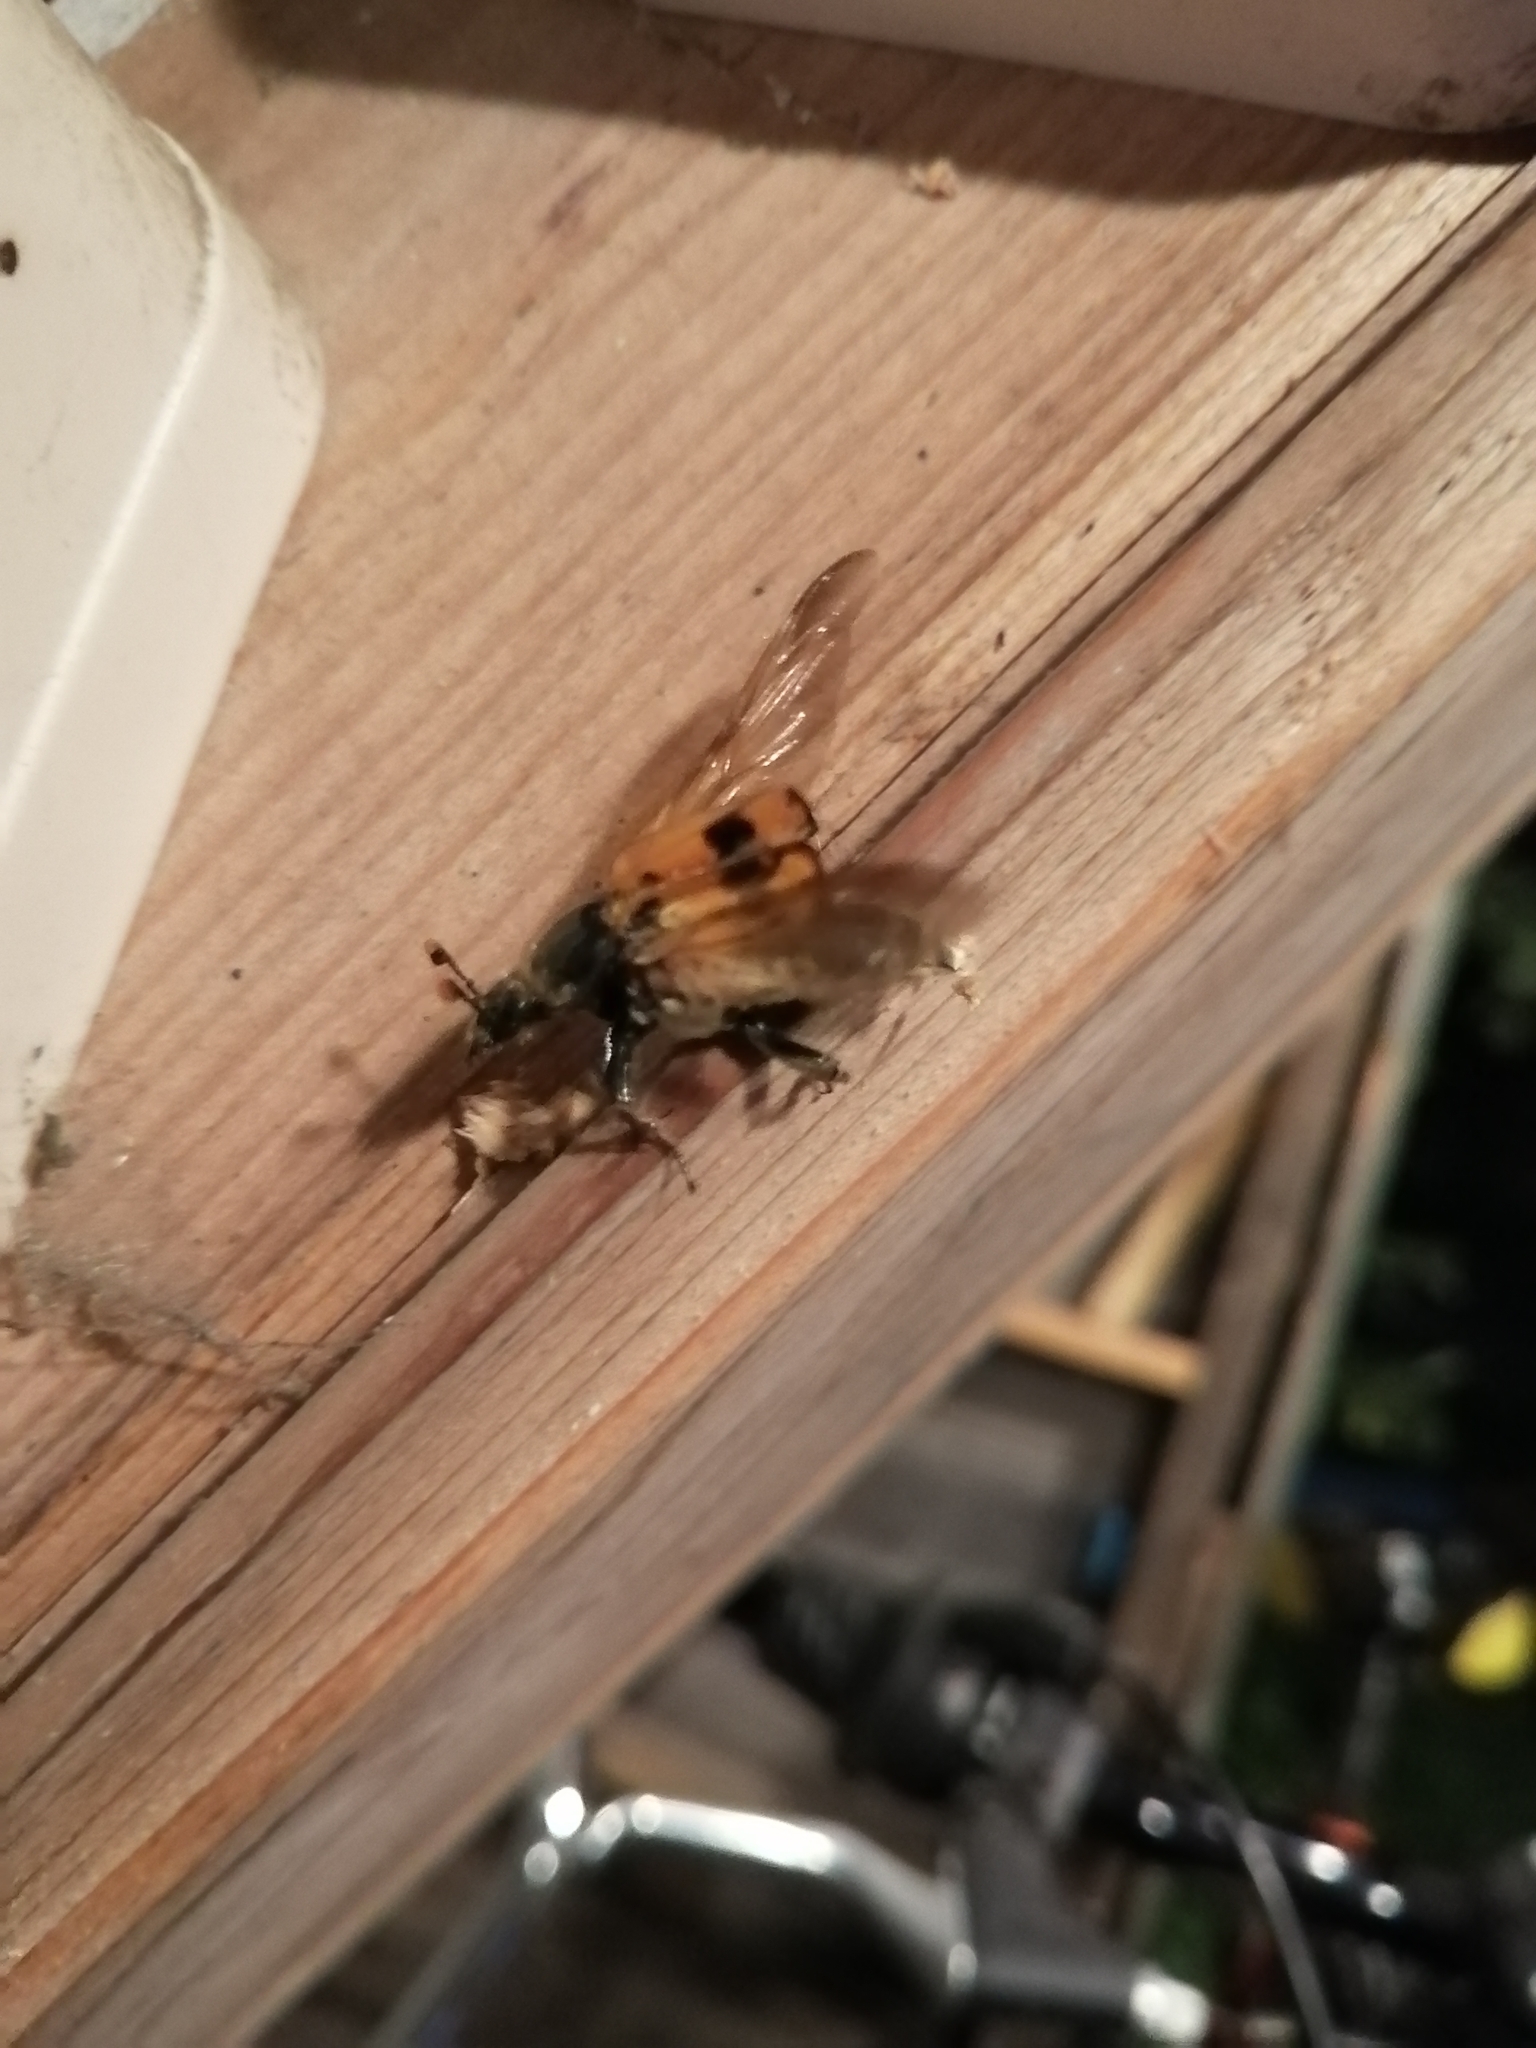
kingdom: Animalia
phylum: Arthropoda
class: Insecta
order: Coleoptera
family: Staphylinidae
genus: Nicrophorus
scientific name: Nicrophorus
